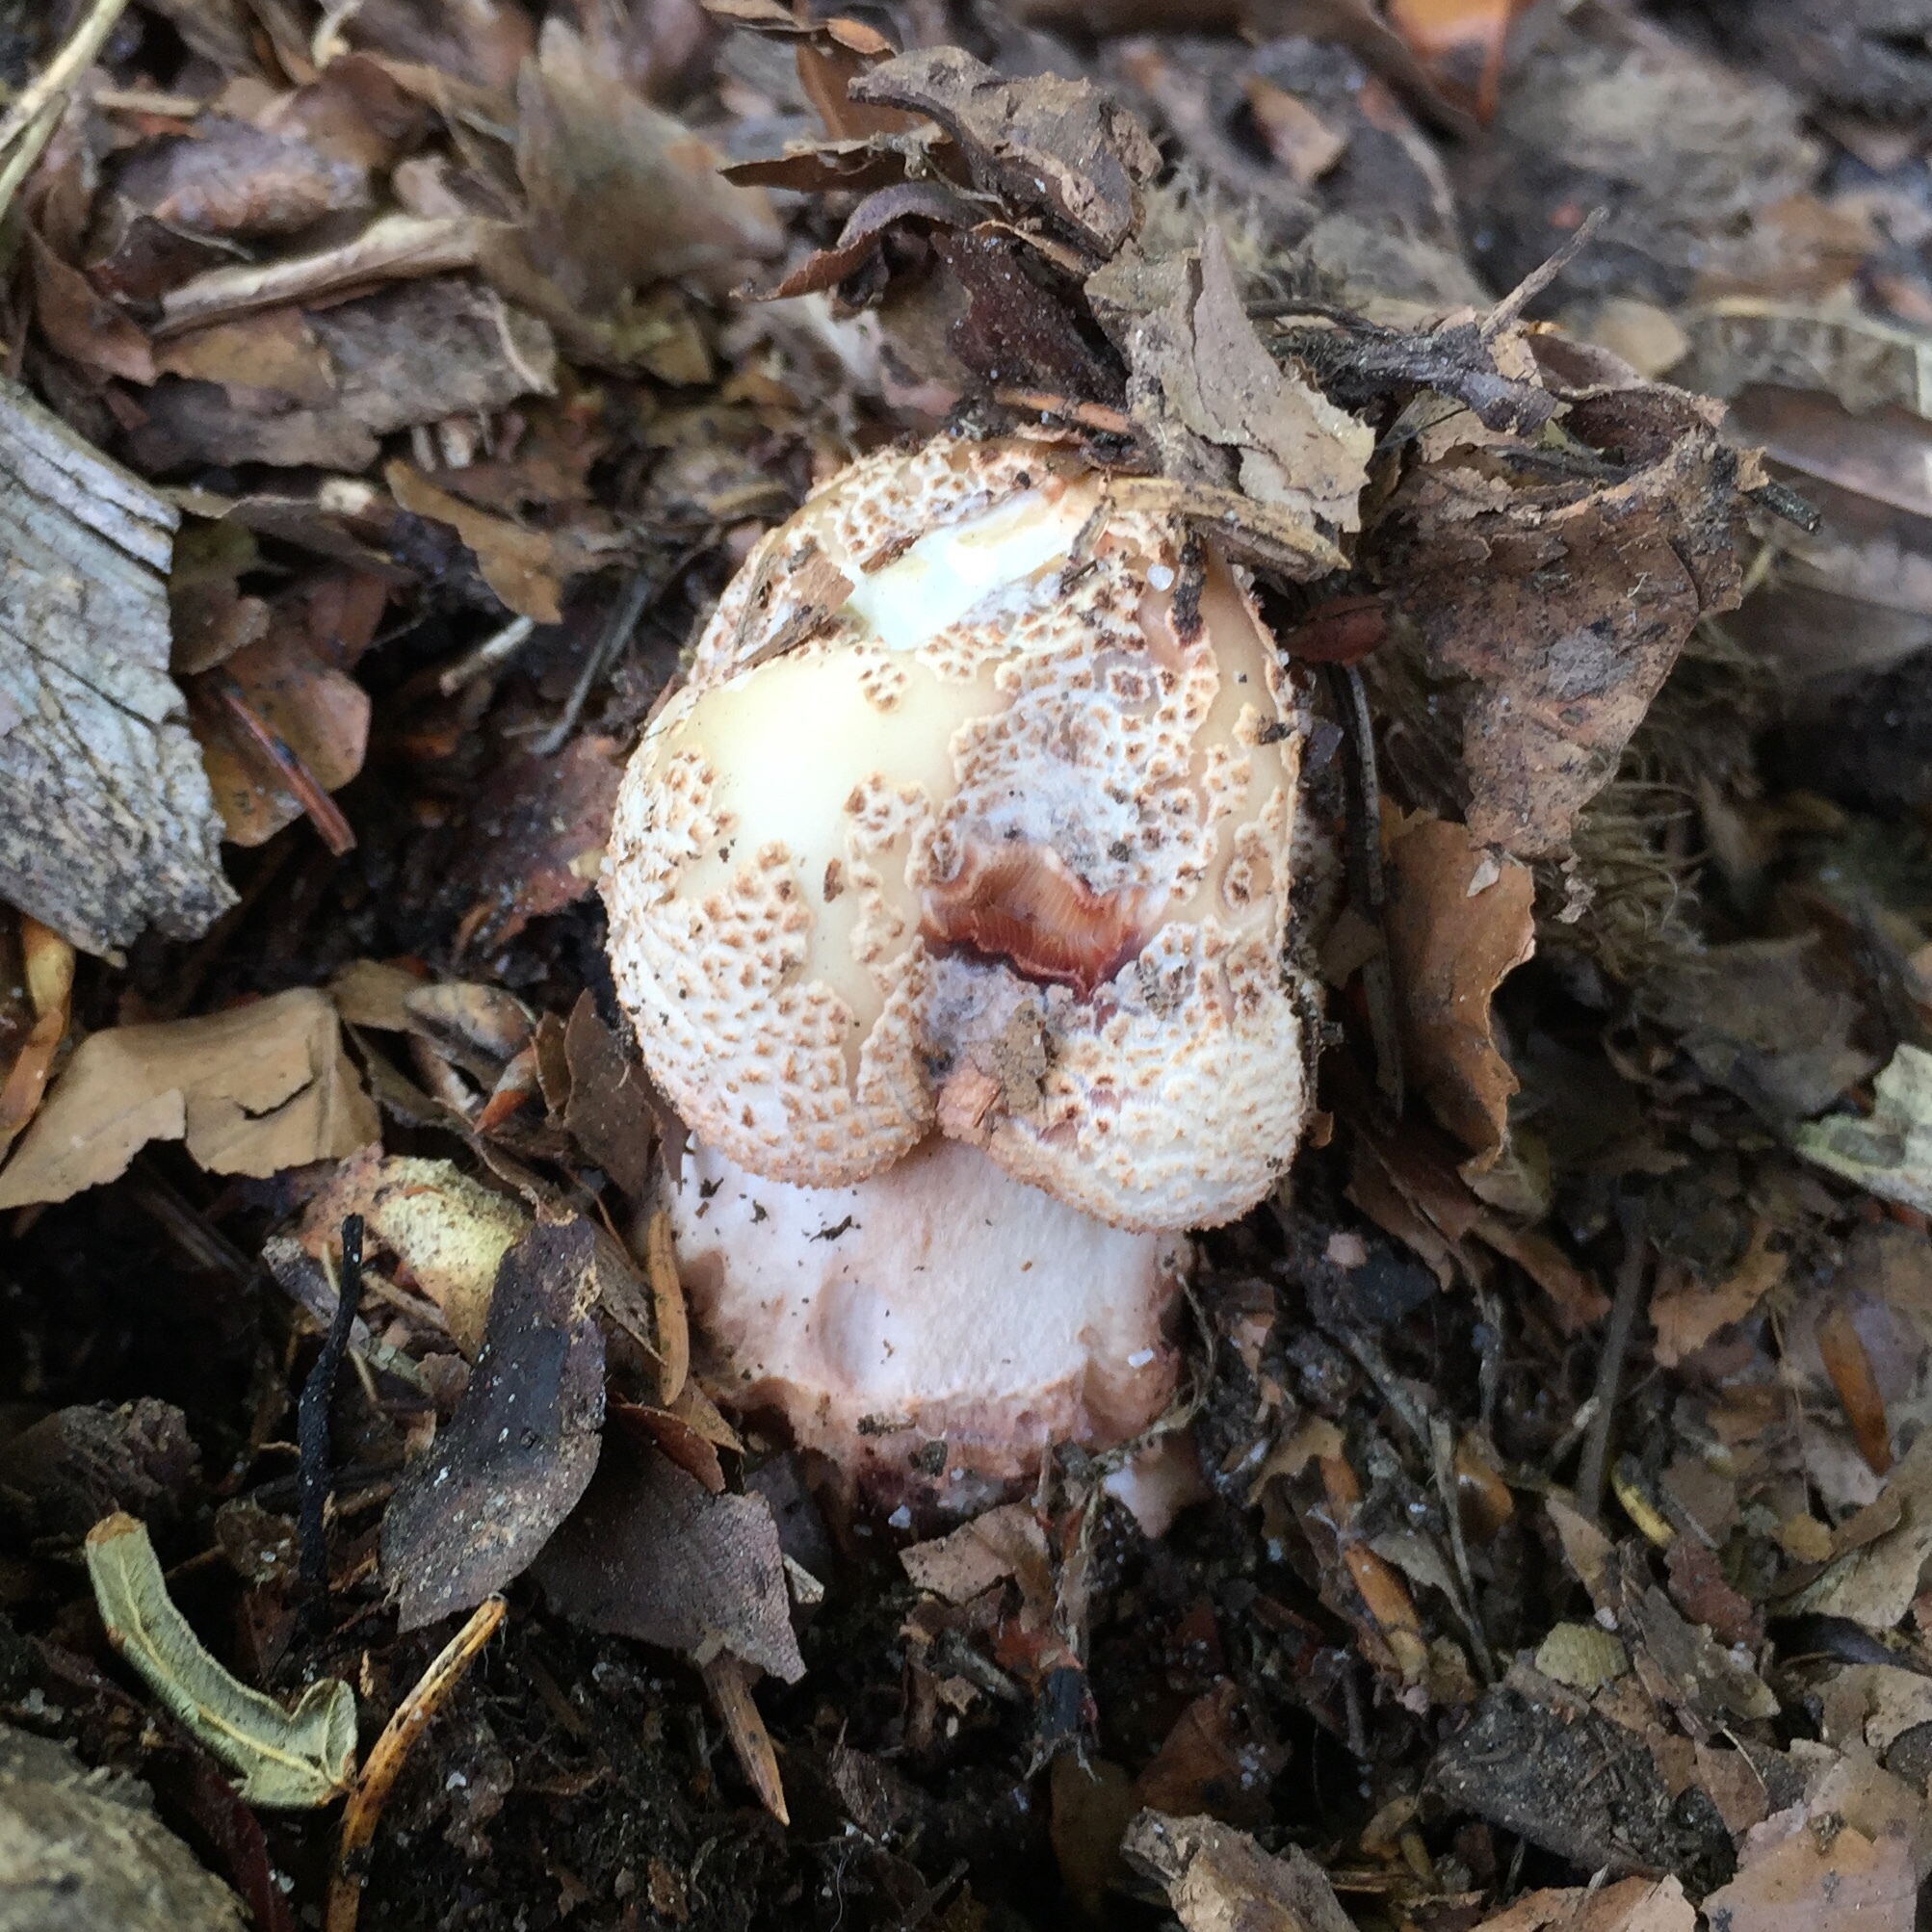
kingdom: Fungi
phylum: Basidiomycota
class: Agaricomycetes
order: Agaricales
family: Amanitaceae
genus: Amanita
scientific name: Amanita rubescens
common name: Blusher
